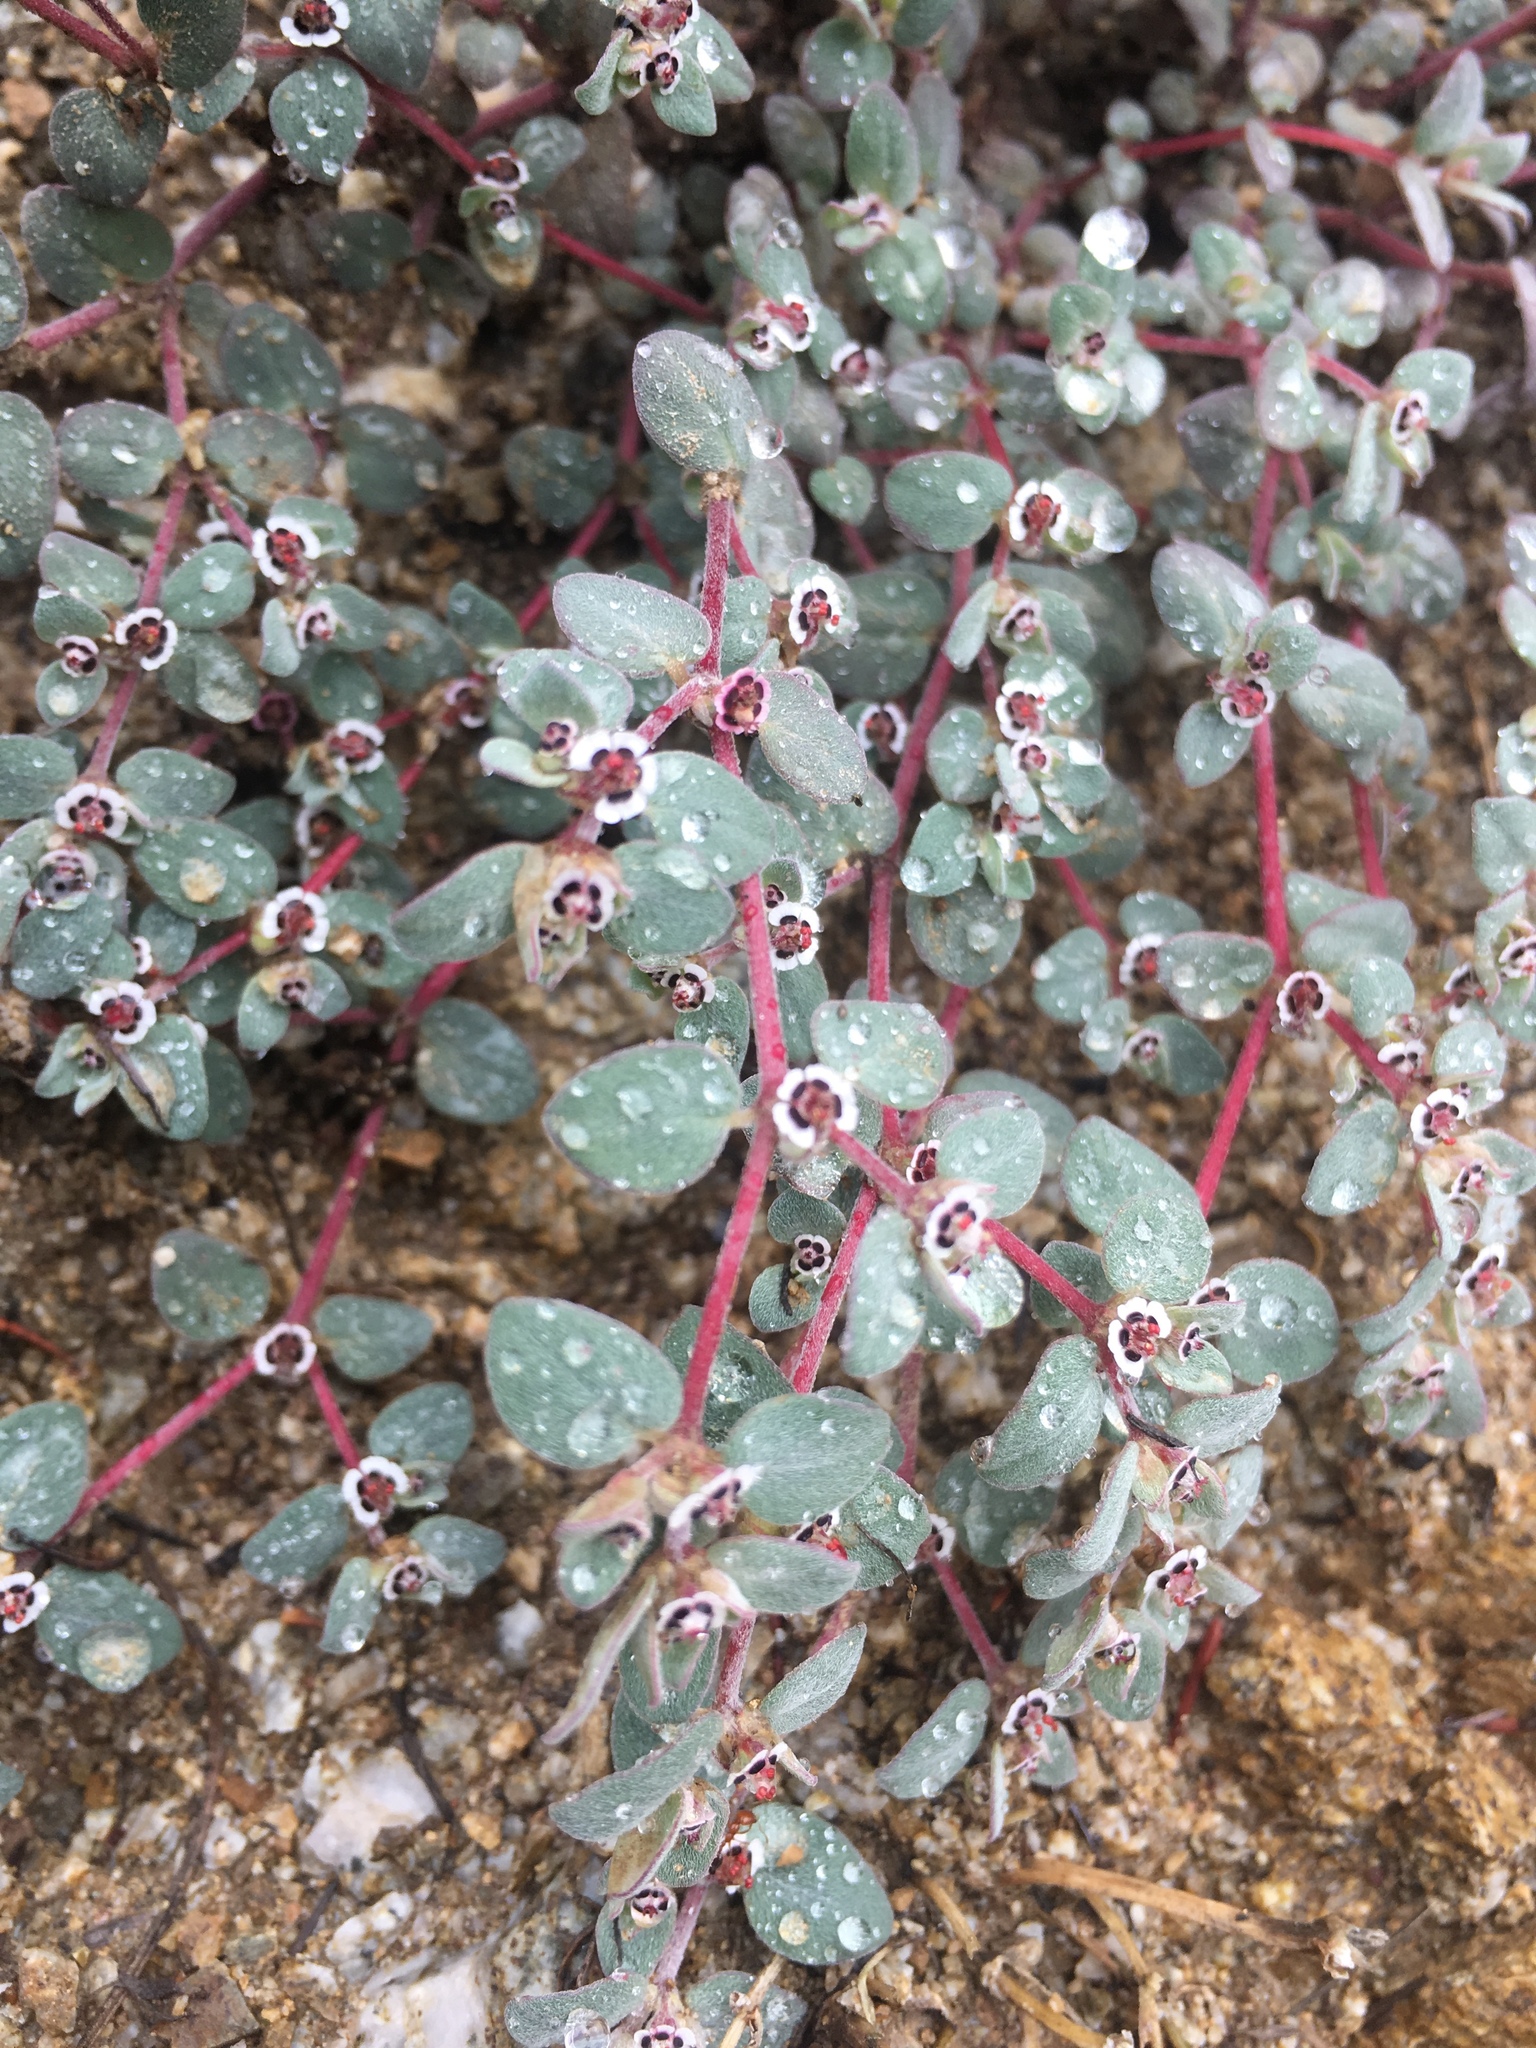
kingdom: Plantae
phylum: Tracheophyta
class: Magnoliopsida
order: Malpighiales
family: Euphorbiaceae
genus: Euphorbia
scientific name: Euphorbia melanadenia
